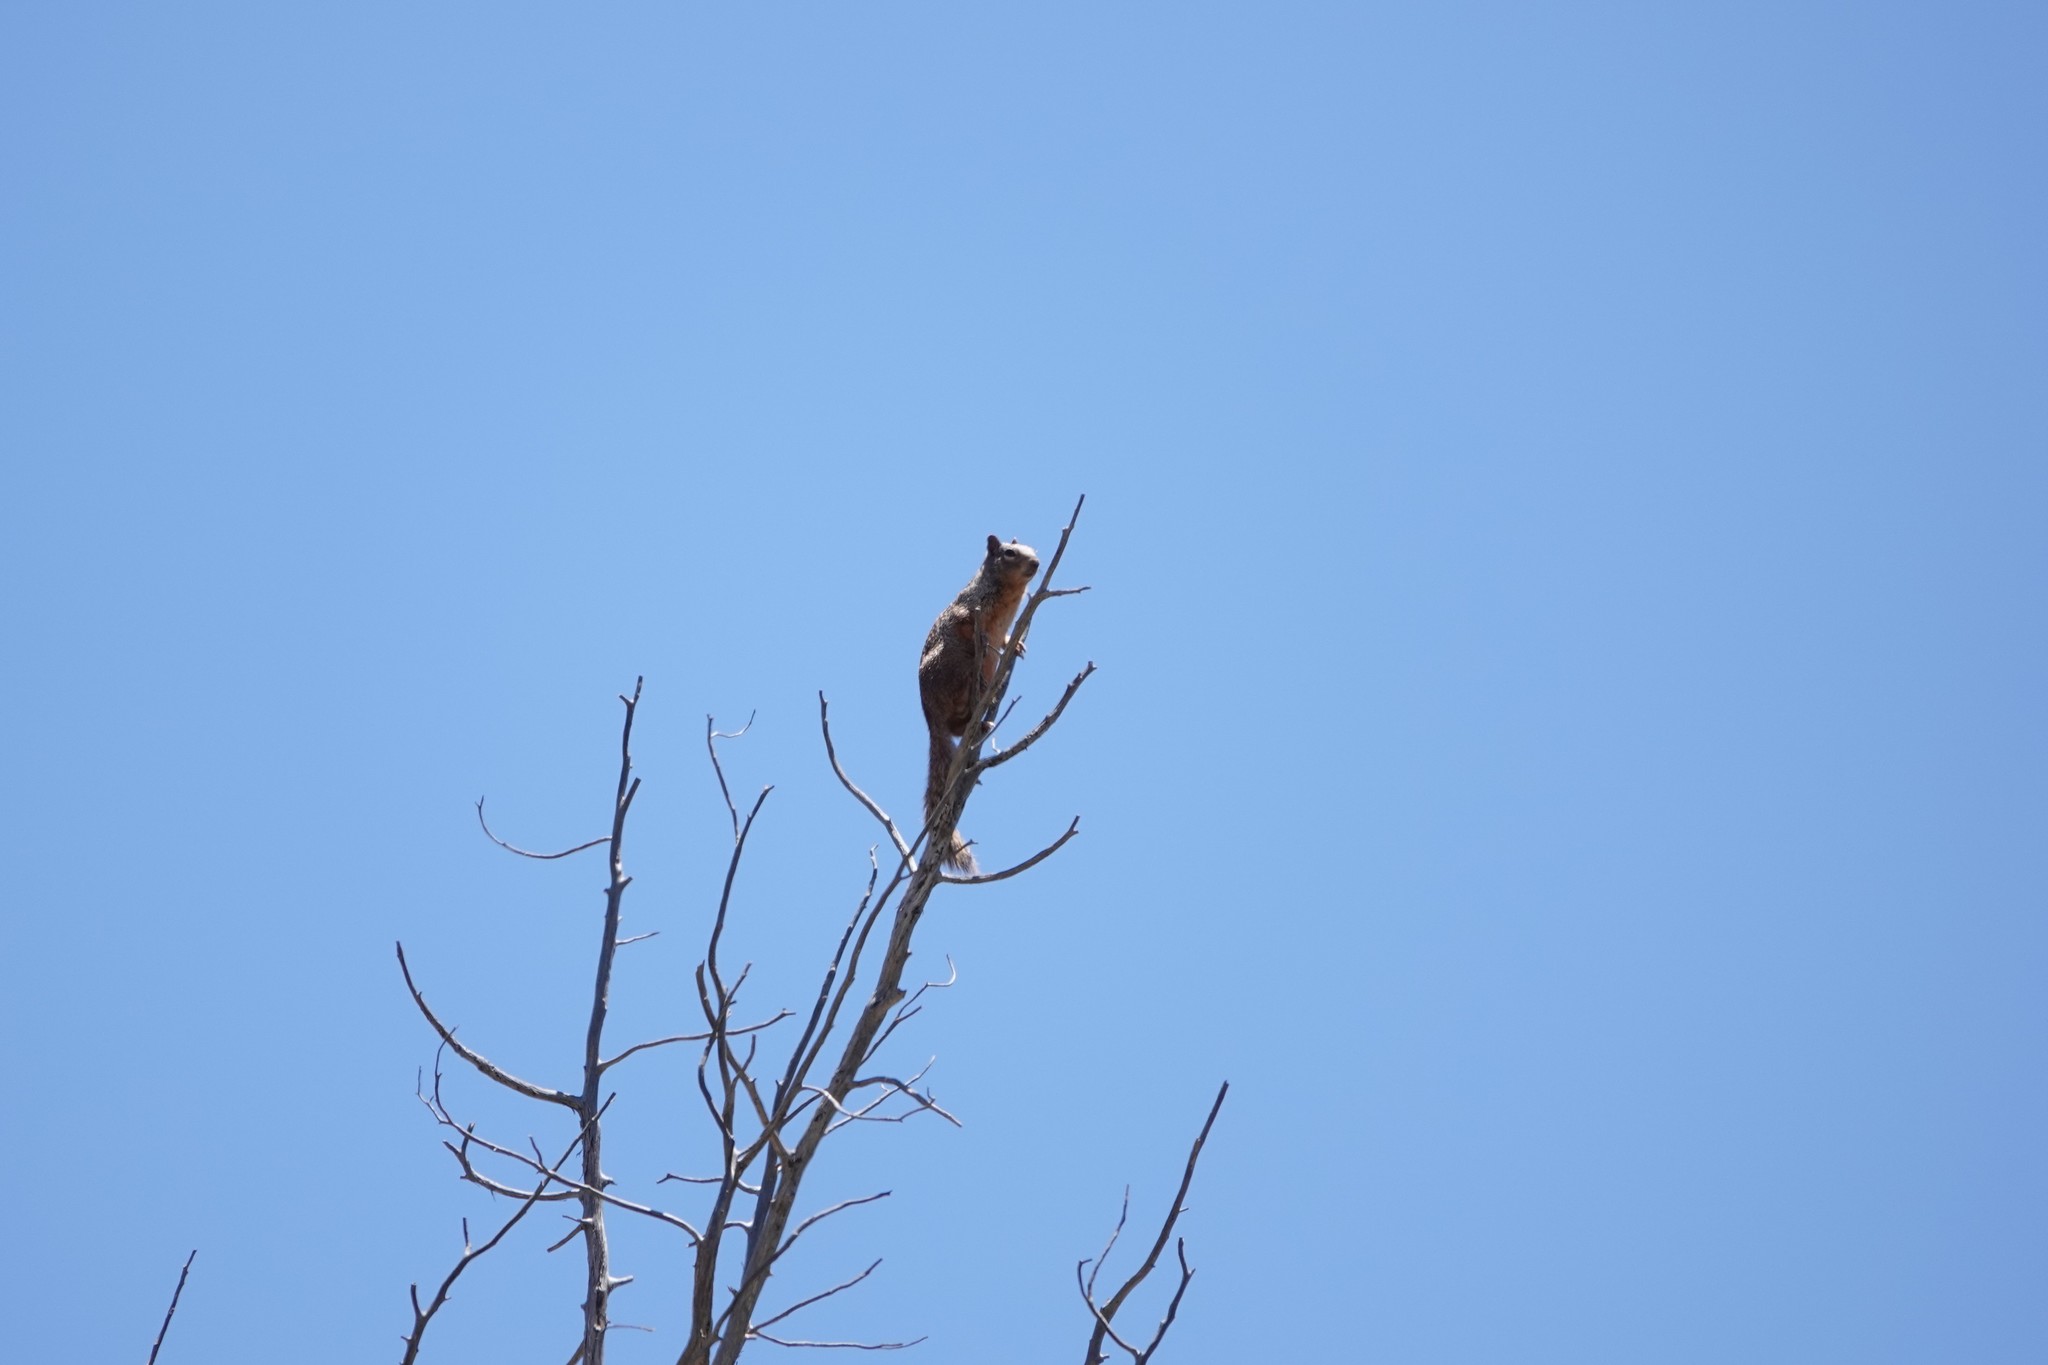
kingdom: Animalia
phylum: Chordata
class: Mammalia
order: Rodentia
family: Sciuridae
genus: Otospermophilus
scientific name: Otospermophilus variegatus
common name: Rock squirrel
